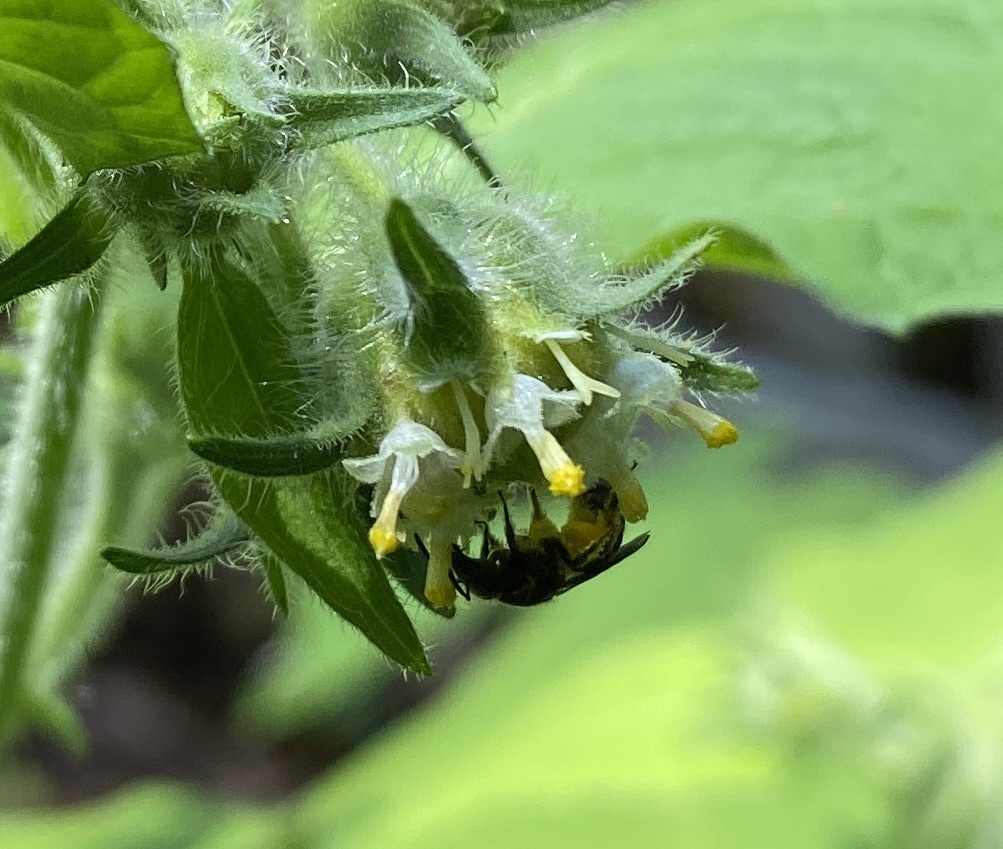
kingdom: Animalia
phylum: Arthropoda
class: Insecta
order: Hymenoptera
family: Halictidae
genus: Halictus
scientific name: Halictus ligatus
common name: Ligated furrow bee
